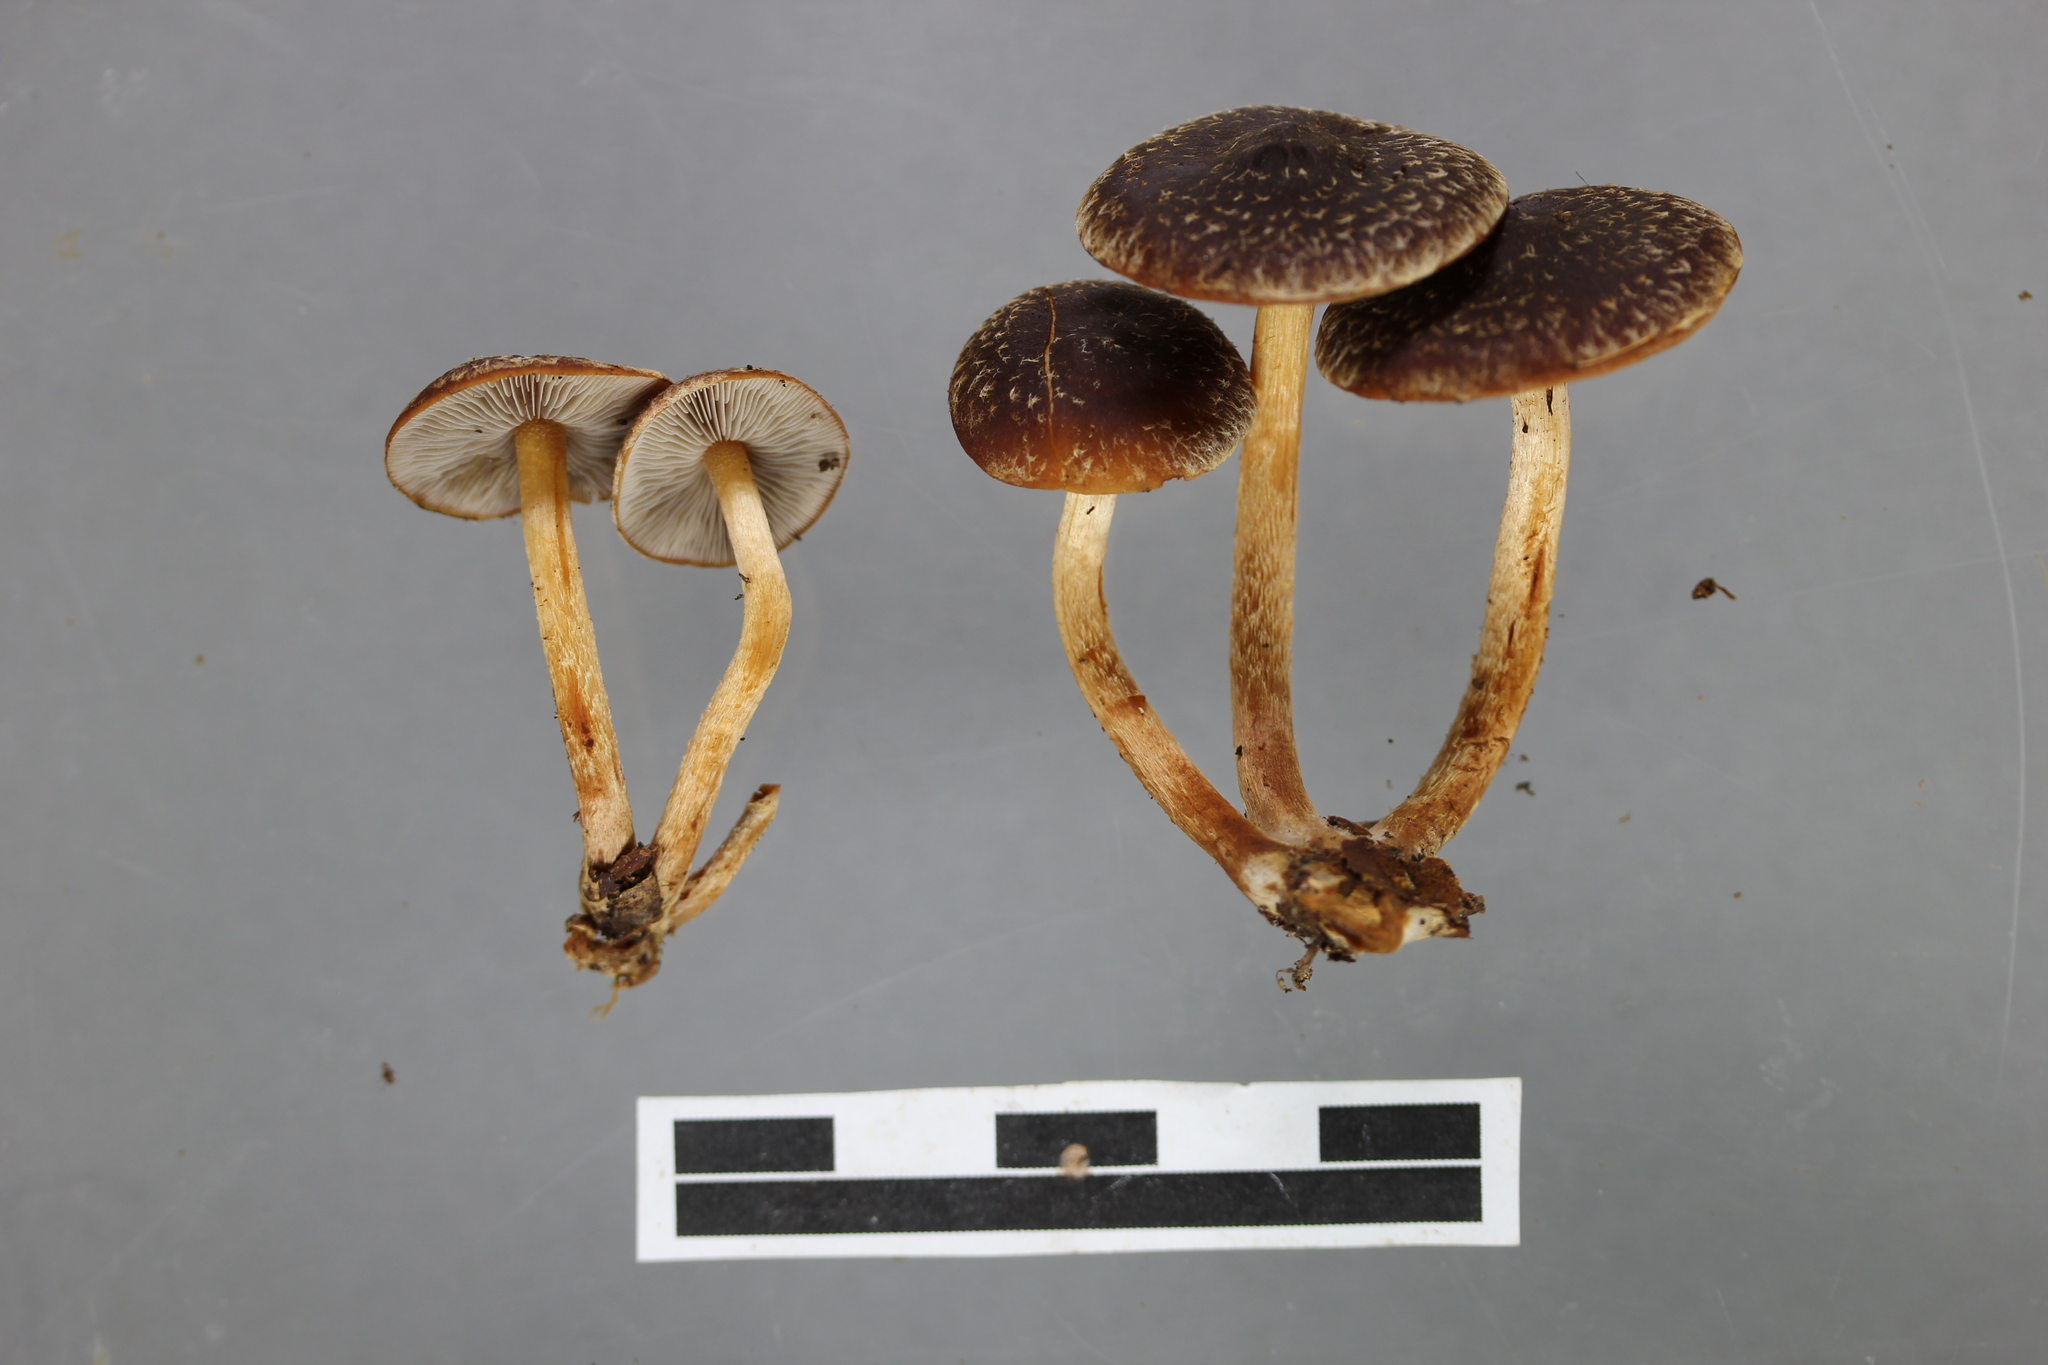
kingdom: Fungi
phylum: Basidiomycota
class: Agaricomycetes
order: Agaricales
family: Strophariaceae
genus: Hypholoma
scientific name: Hypholoma brunneum
